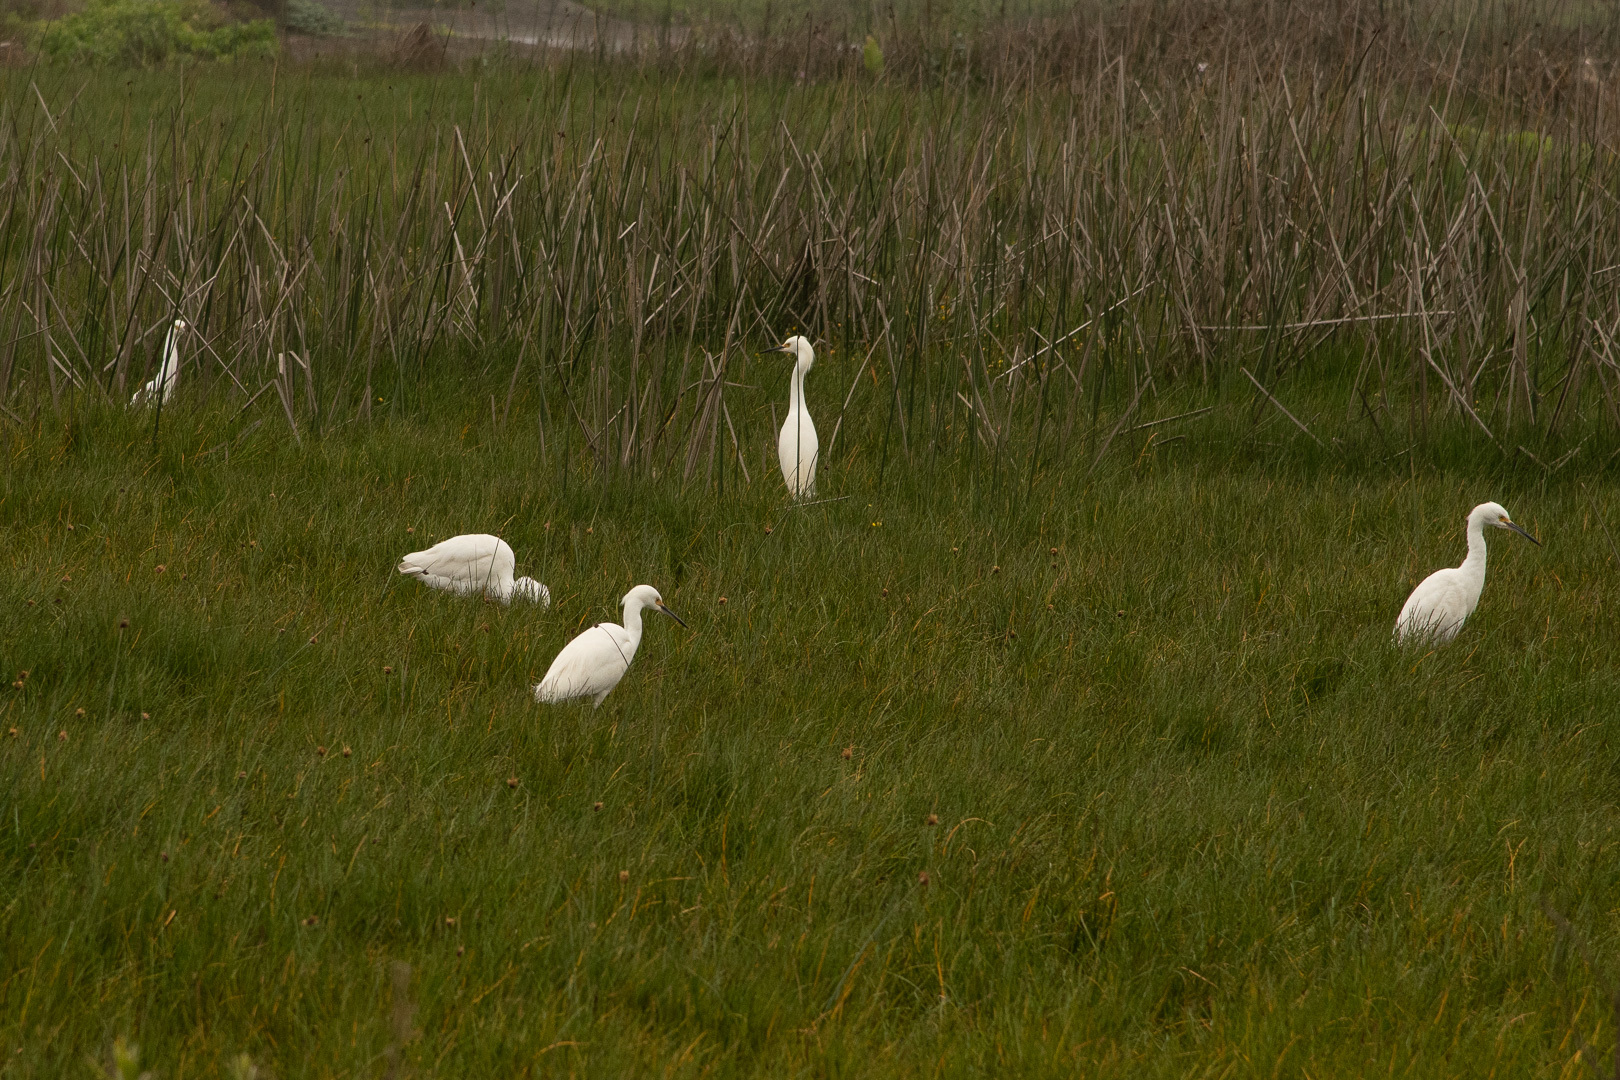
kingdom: Animalia
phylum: Chordata
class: Aves
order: Pelecaniformes
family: Ardeidae
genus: Egretta
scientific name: Egretta thula
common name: Snowy egret
